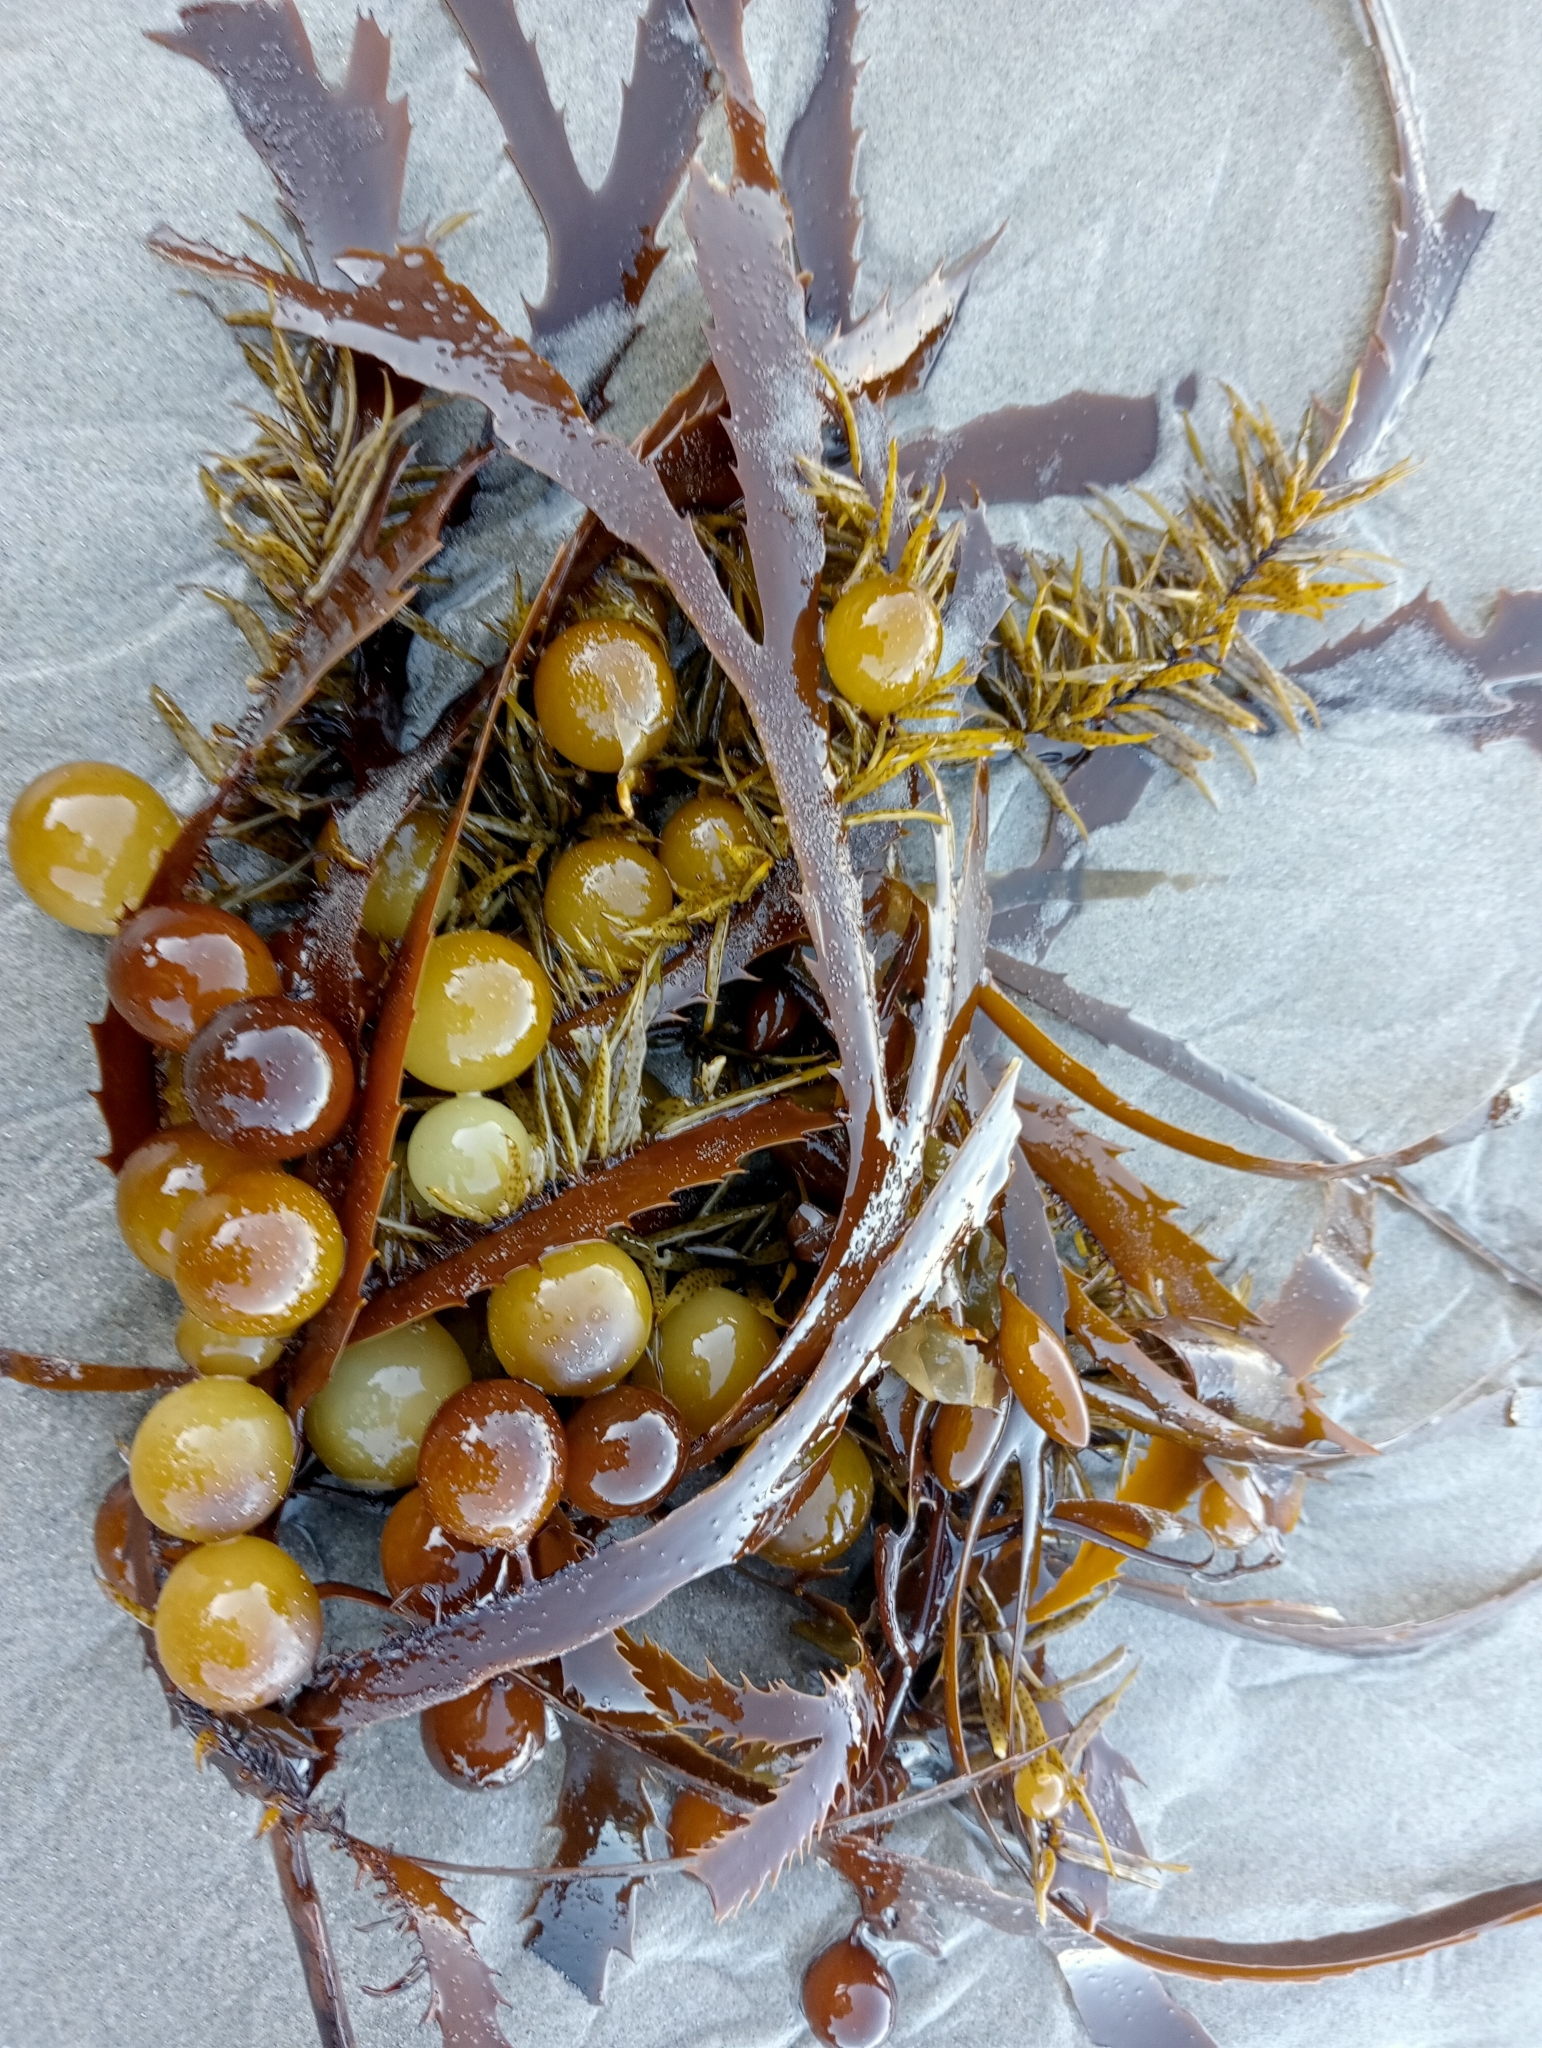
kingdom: Chromista
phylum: Ochrophyta
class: Phaeophyceae
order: Fucales
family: Seirococcaceae
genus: Marginariella
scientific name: Marginariella urvilliana
